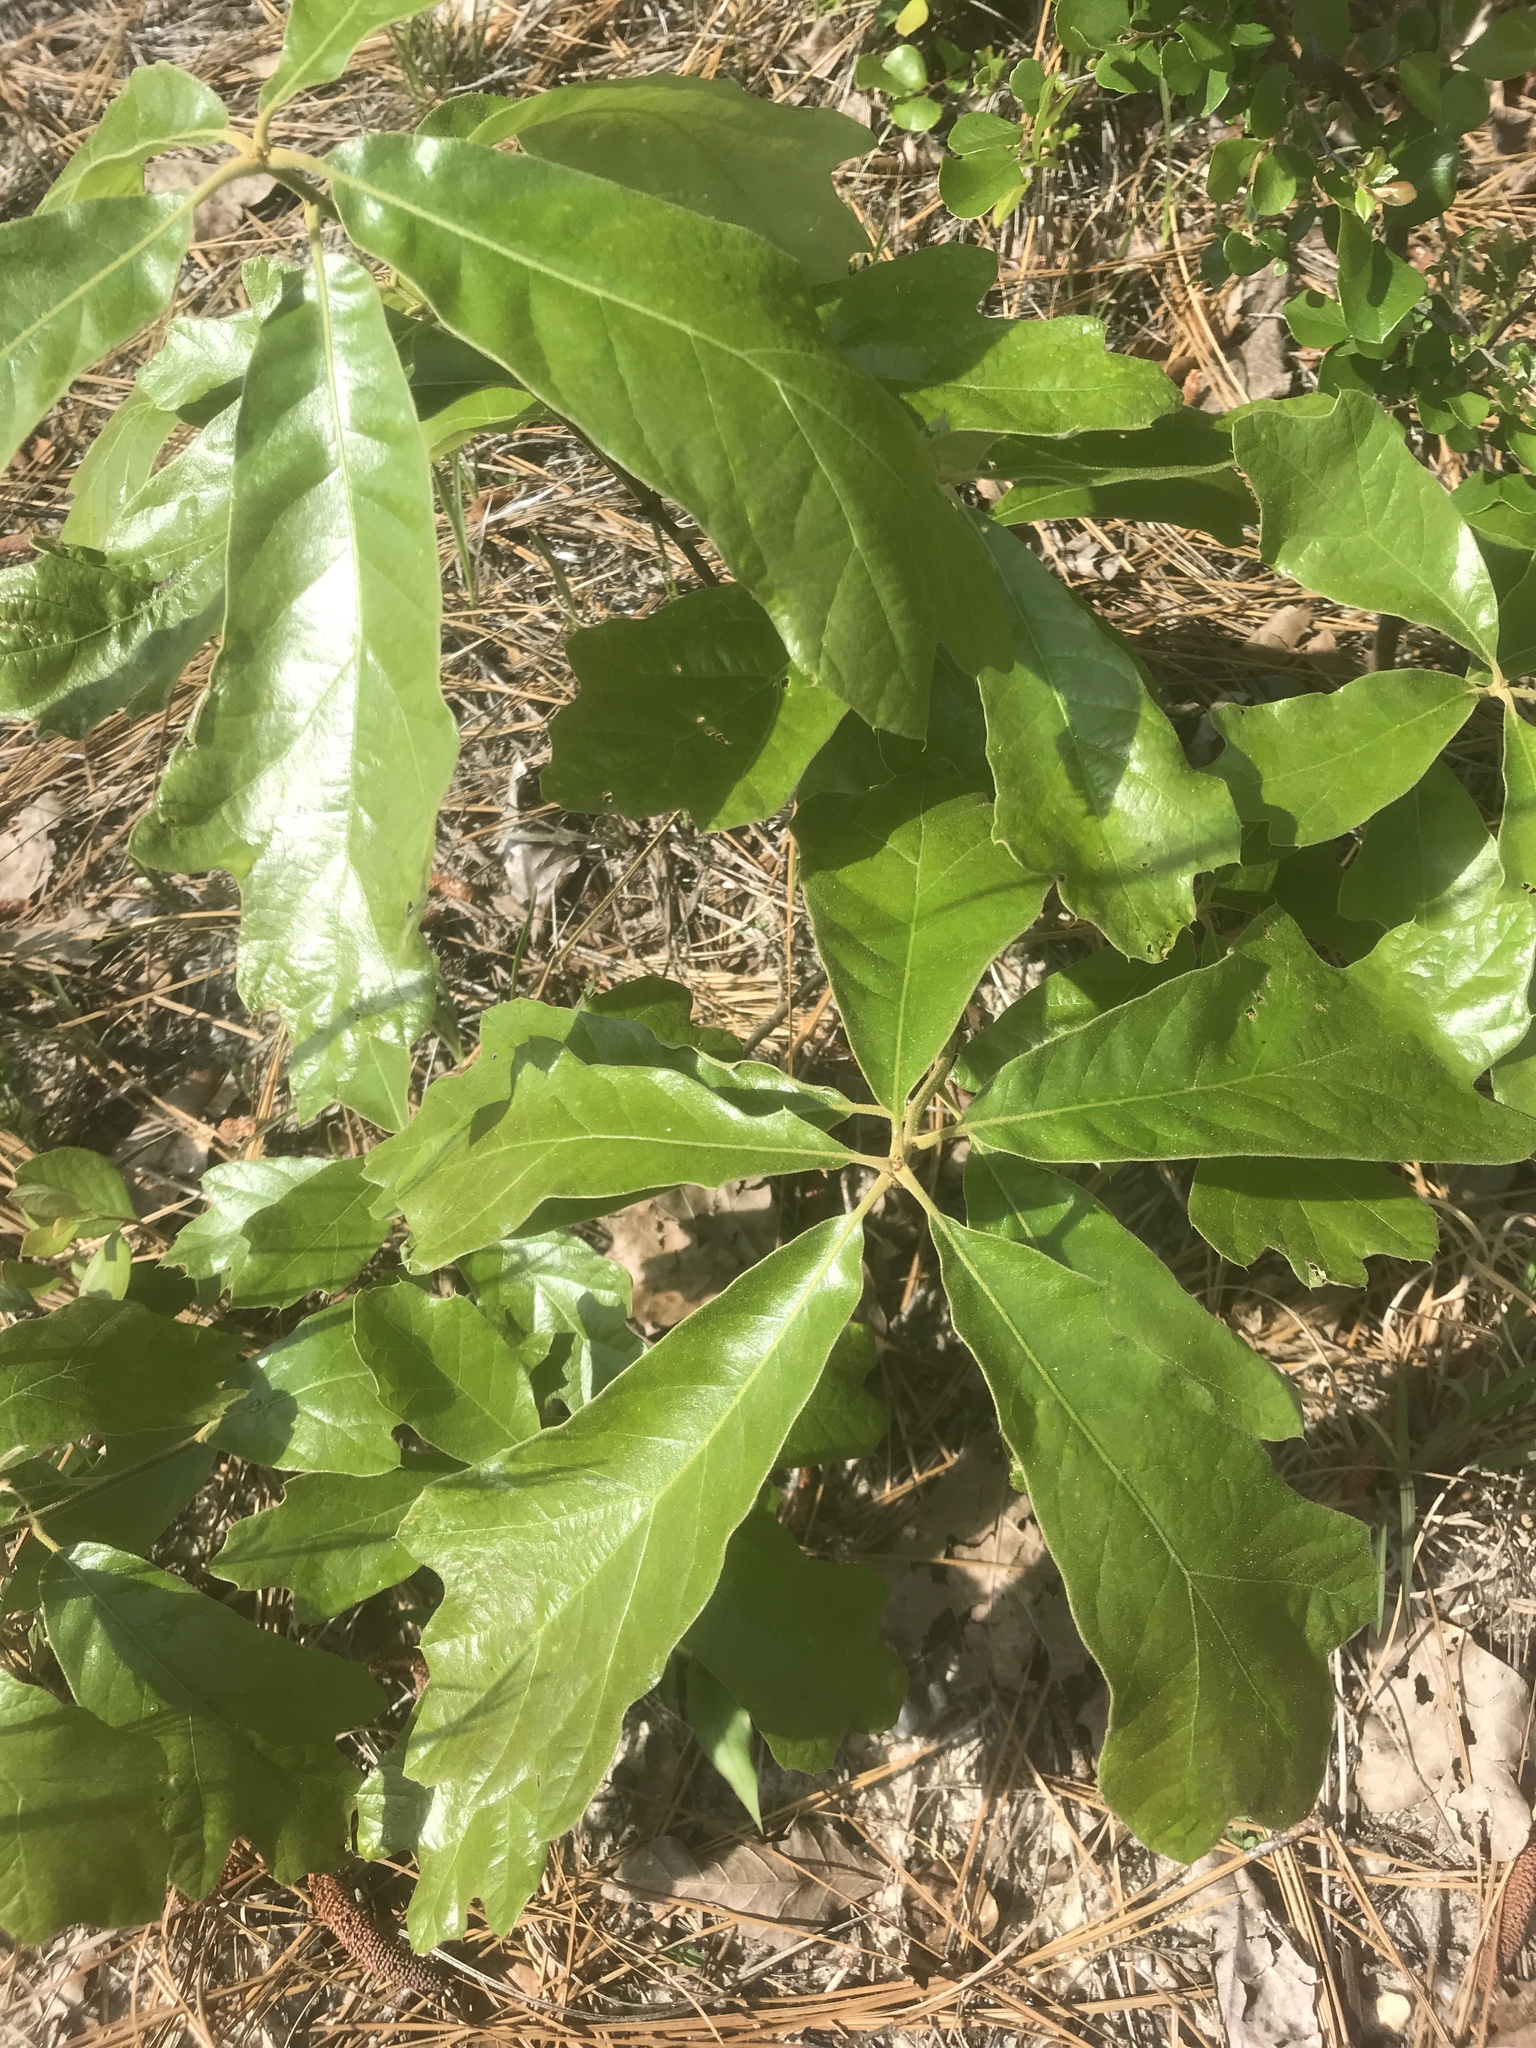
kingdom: Plantae
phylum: Tracheophyta
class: Magnoliopsida
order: Fagales
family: Fagaceae
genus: Quercus
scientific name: Quercus falcata
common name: Southern red oak
